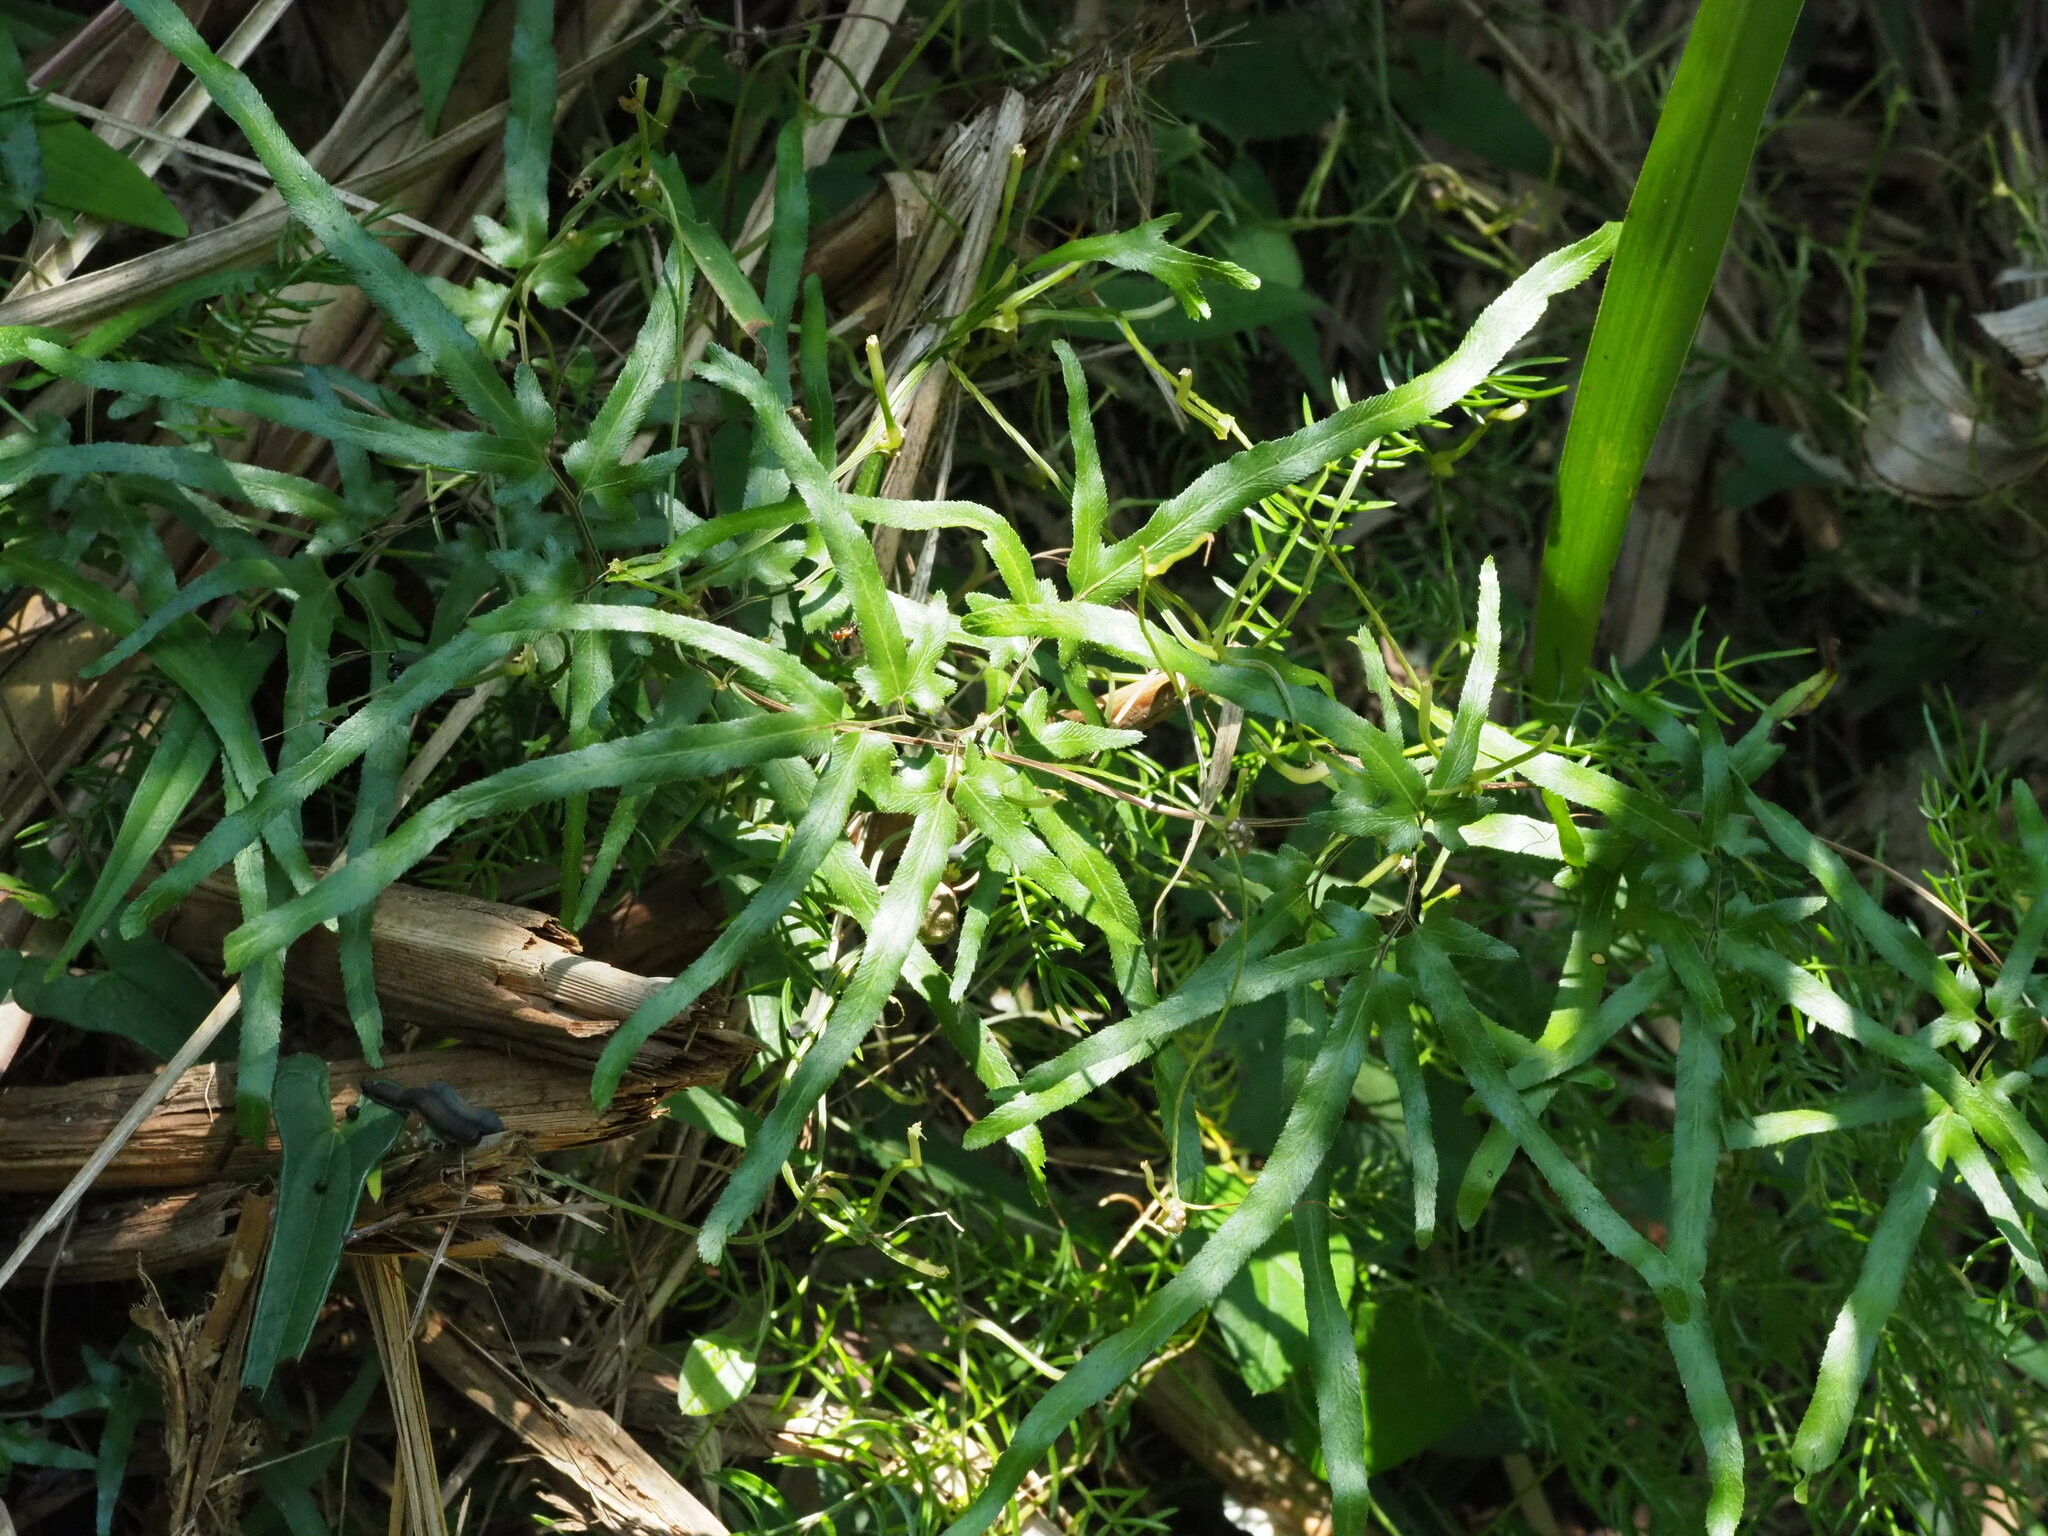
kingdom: Plantae
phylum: Tracheophyta
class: Polypodiopsida
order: Schizaeales
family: Lygodiaceae
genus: Lygodium
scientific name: Lygodium japonicum
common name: Japanese climbing fern
